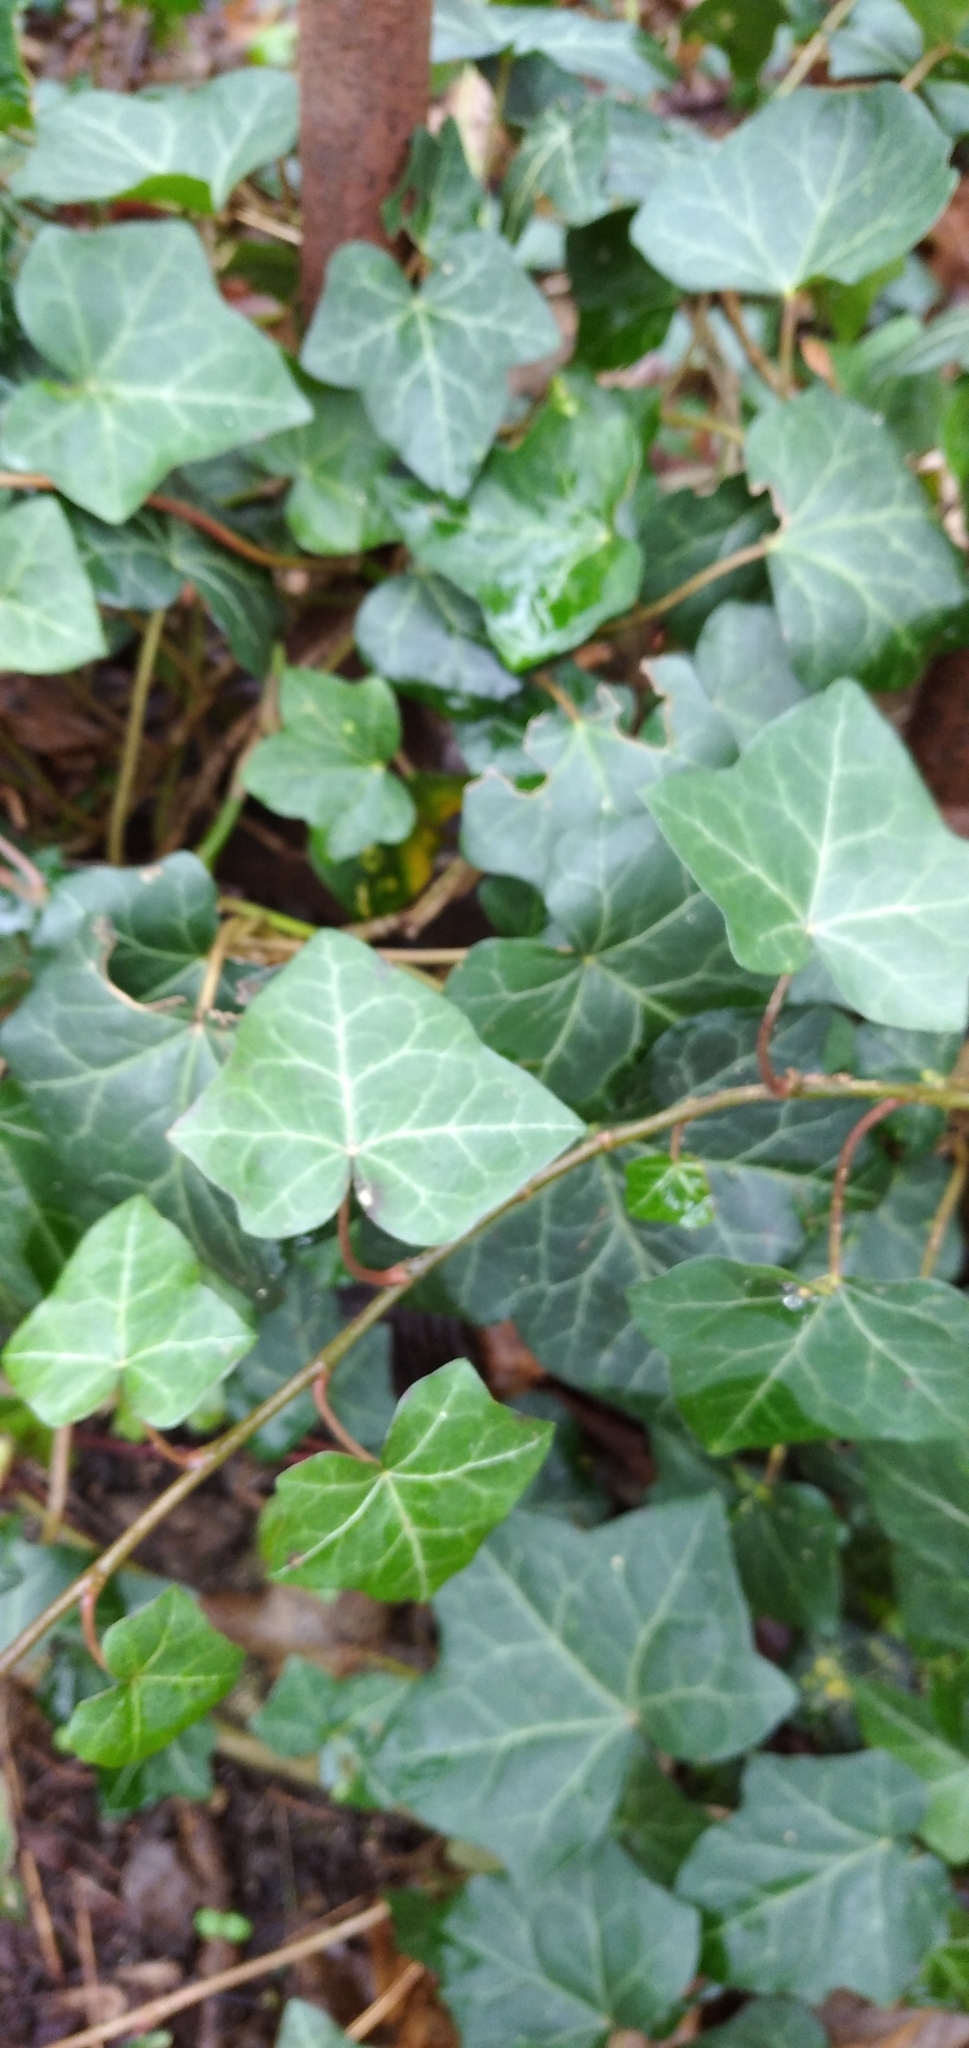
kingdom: Plantae
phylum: Tracheophyta
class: Magnoliopsida
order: Apiales
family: Araliaceae
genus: Hedera
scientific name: Hedera helix
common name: Ivy
